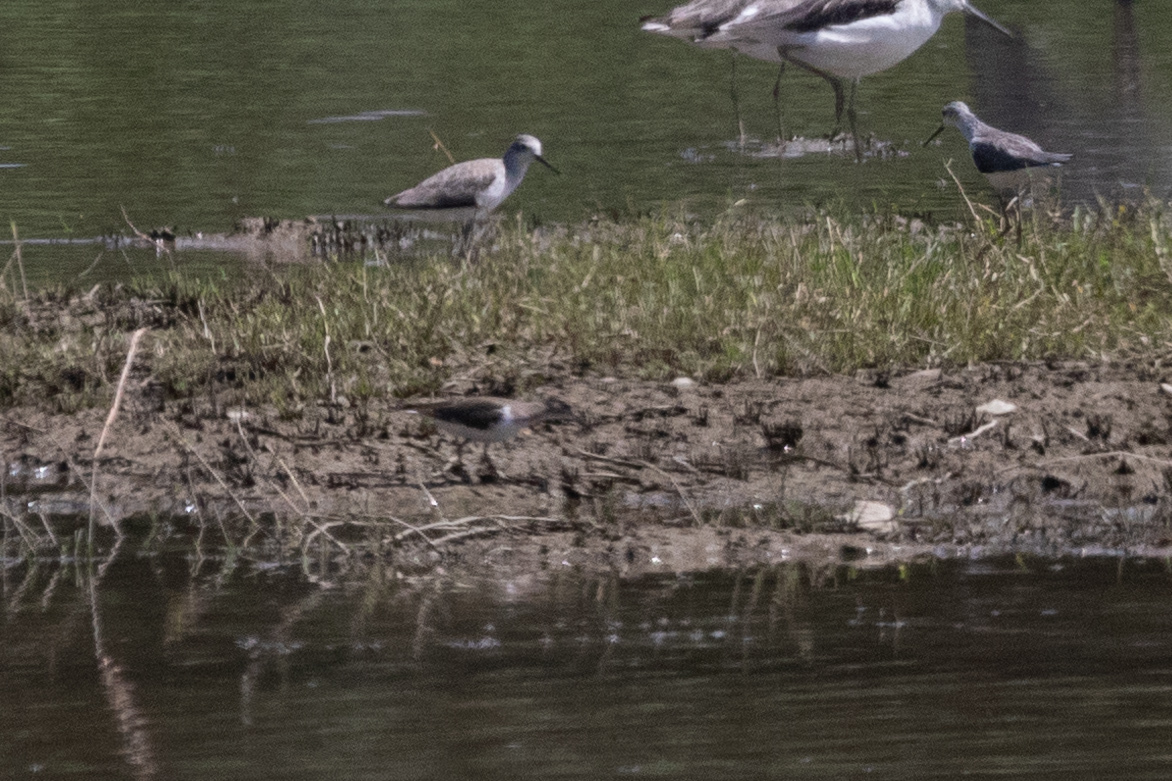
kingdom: Animalia
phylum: Chordata
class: Aves
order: Charadriiformes
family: Scolopacidae
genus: Actitis
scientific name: Actitis hypoleucos
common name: Common sandpiper
